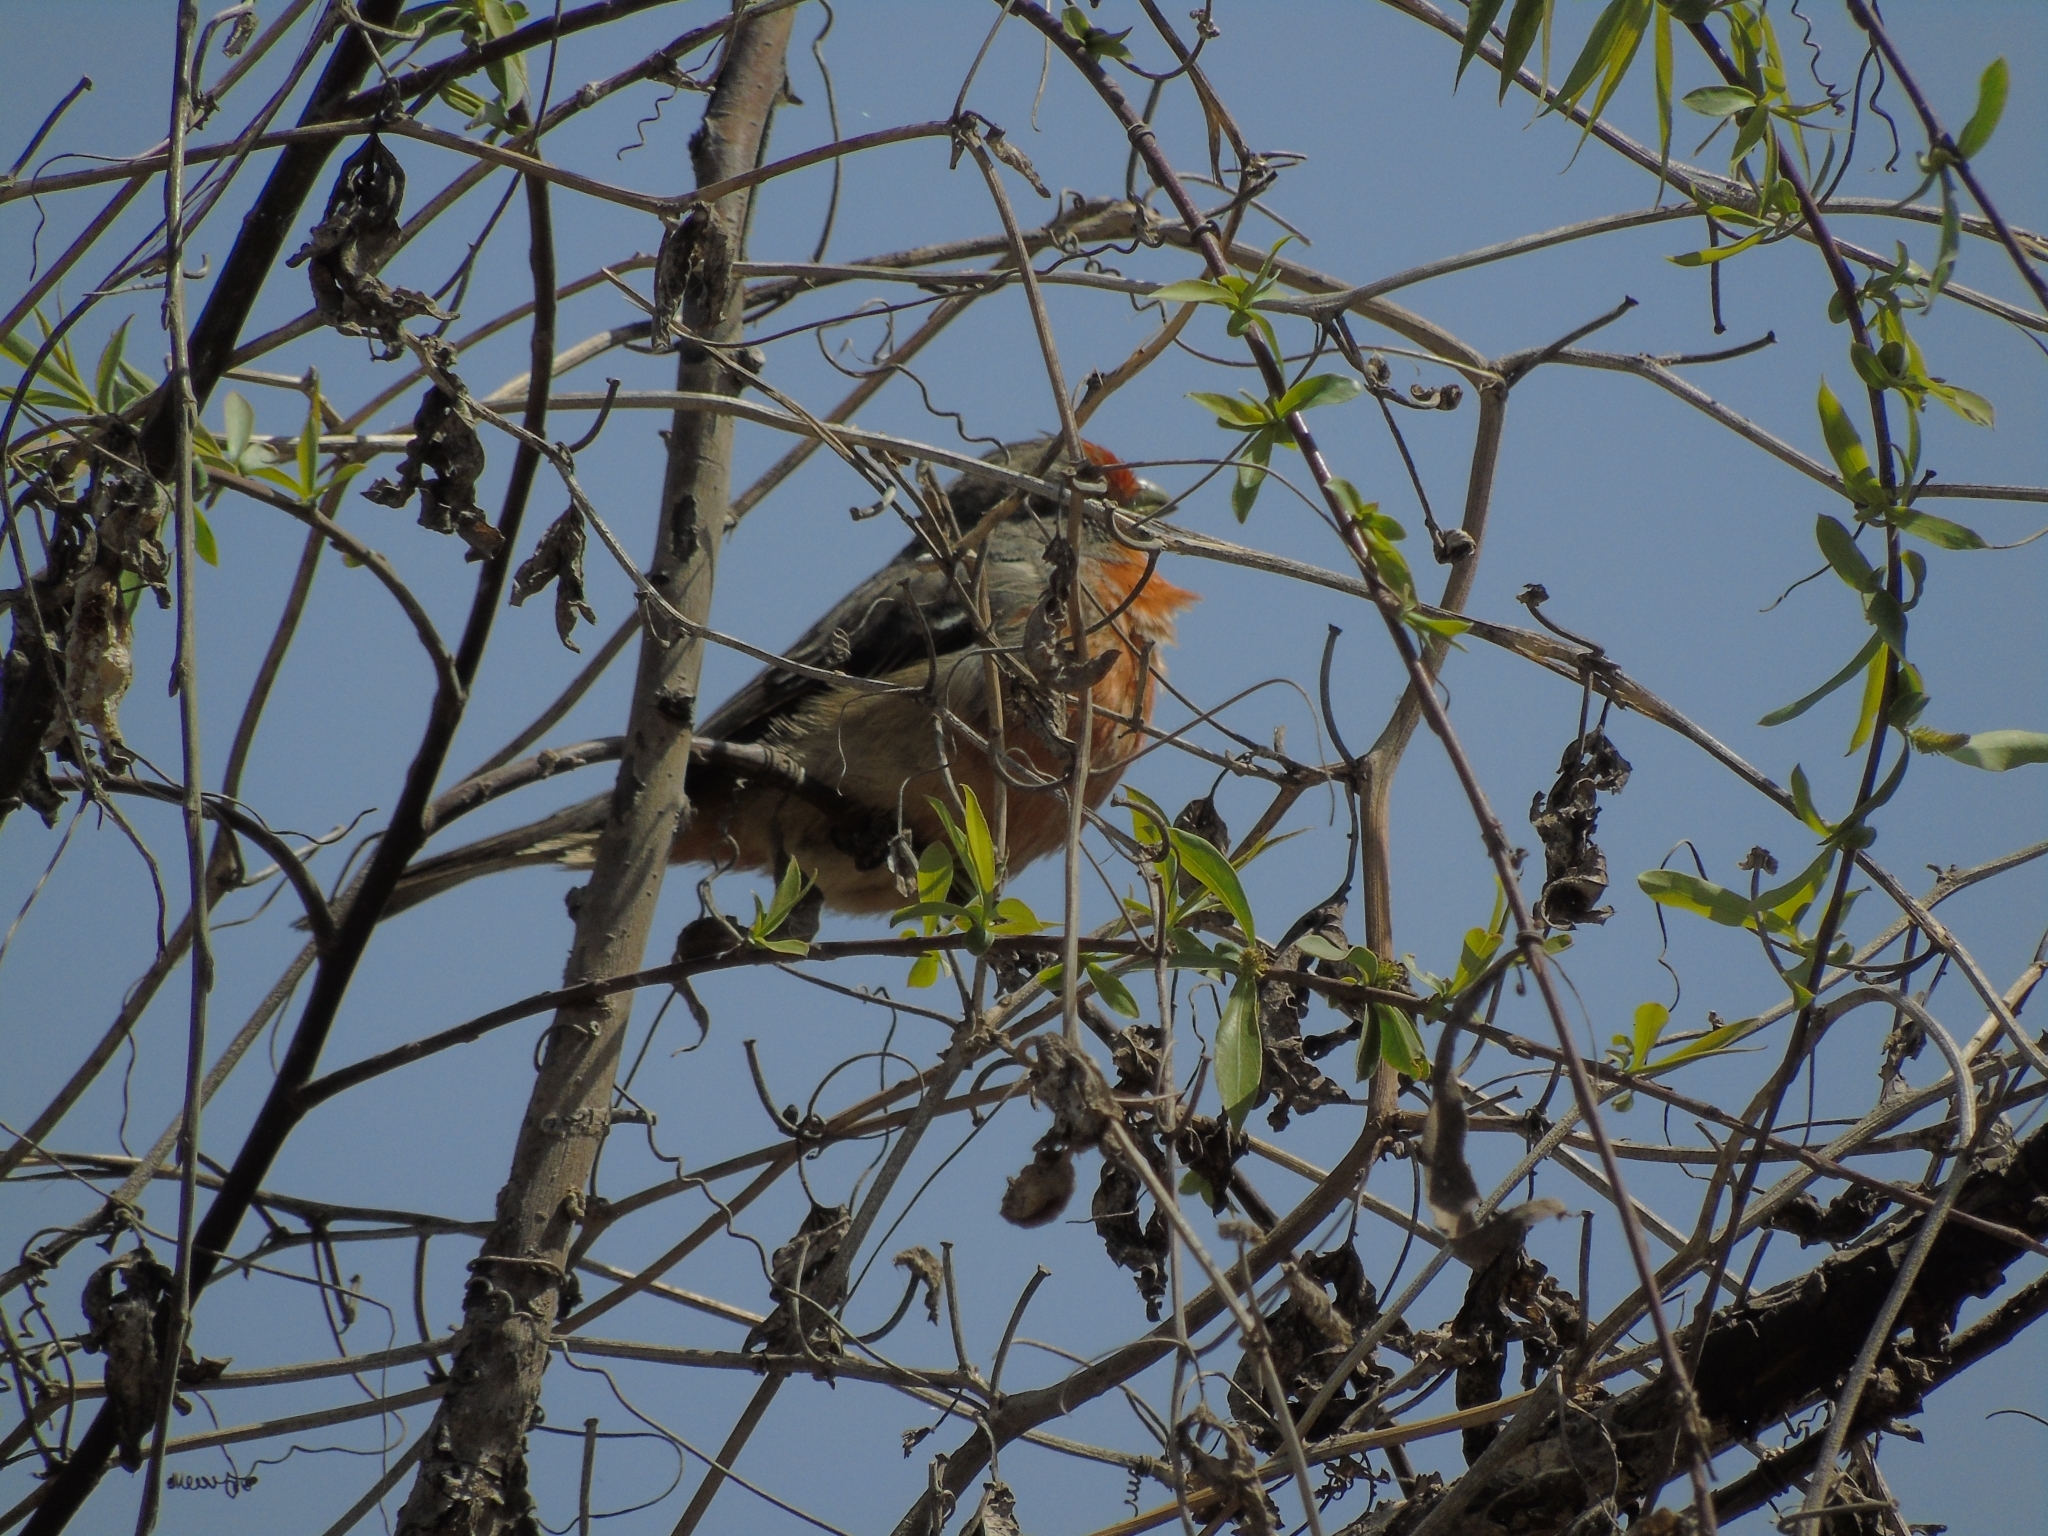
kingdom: Animalia
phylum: Chordata
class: Aves
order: Passeriformes
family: Cotingidae
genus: Phytotoma
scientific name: Phytotoma rutila
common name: White-tipped plantcutter
